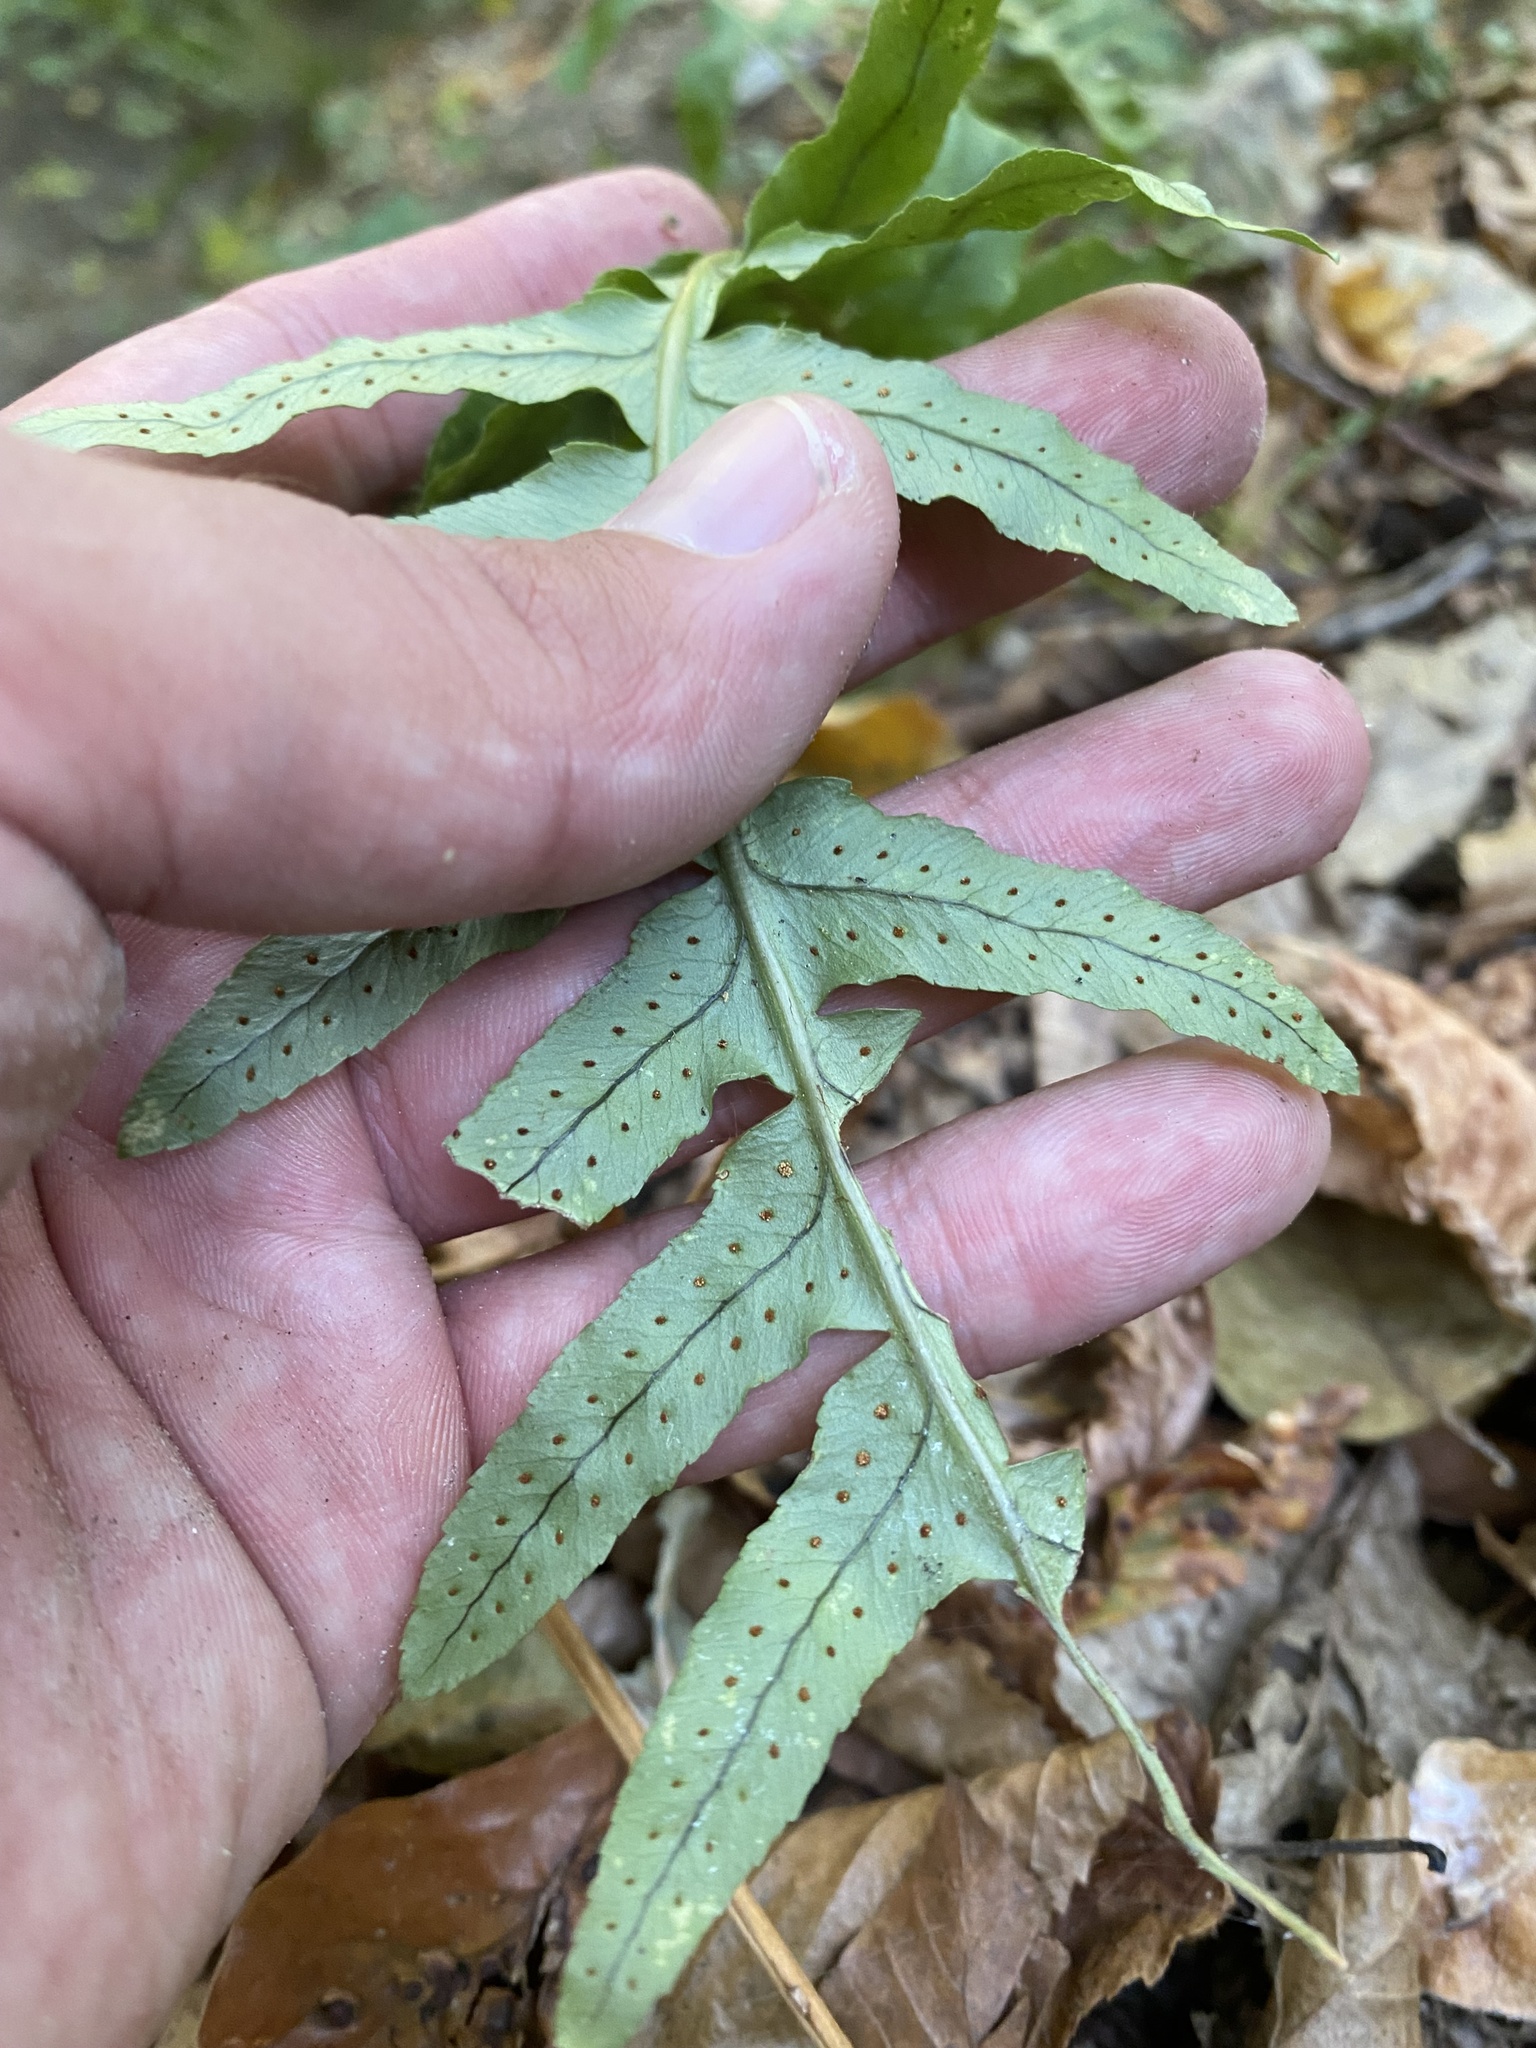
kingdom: Plantae
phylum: Tracheophyta
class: Polypodiopsida
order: Polypodiales
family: Polypodiaceae
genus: Polypodium
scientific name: Polypodium vulgare
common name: Common polypody
